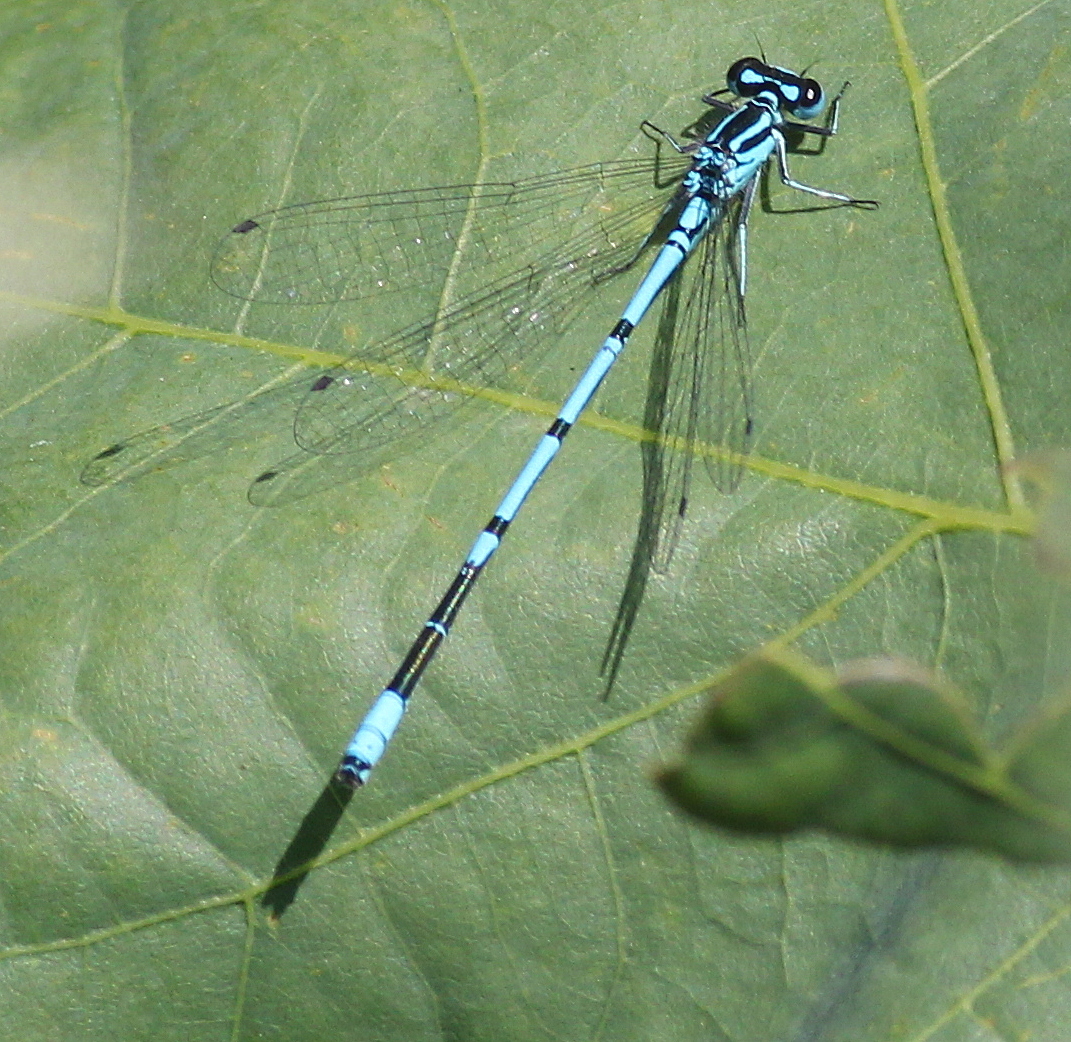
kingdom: Animalia
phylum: Arthropoda
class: Insecta
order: Odonata
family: Coenagrionidae
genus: Coenagrion
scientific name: Coenagrion puella
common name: Azure damselfly
